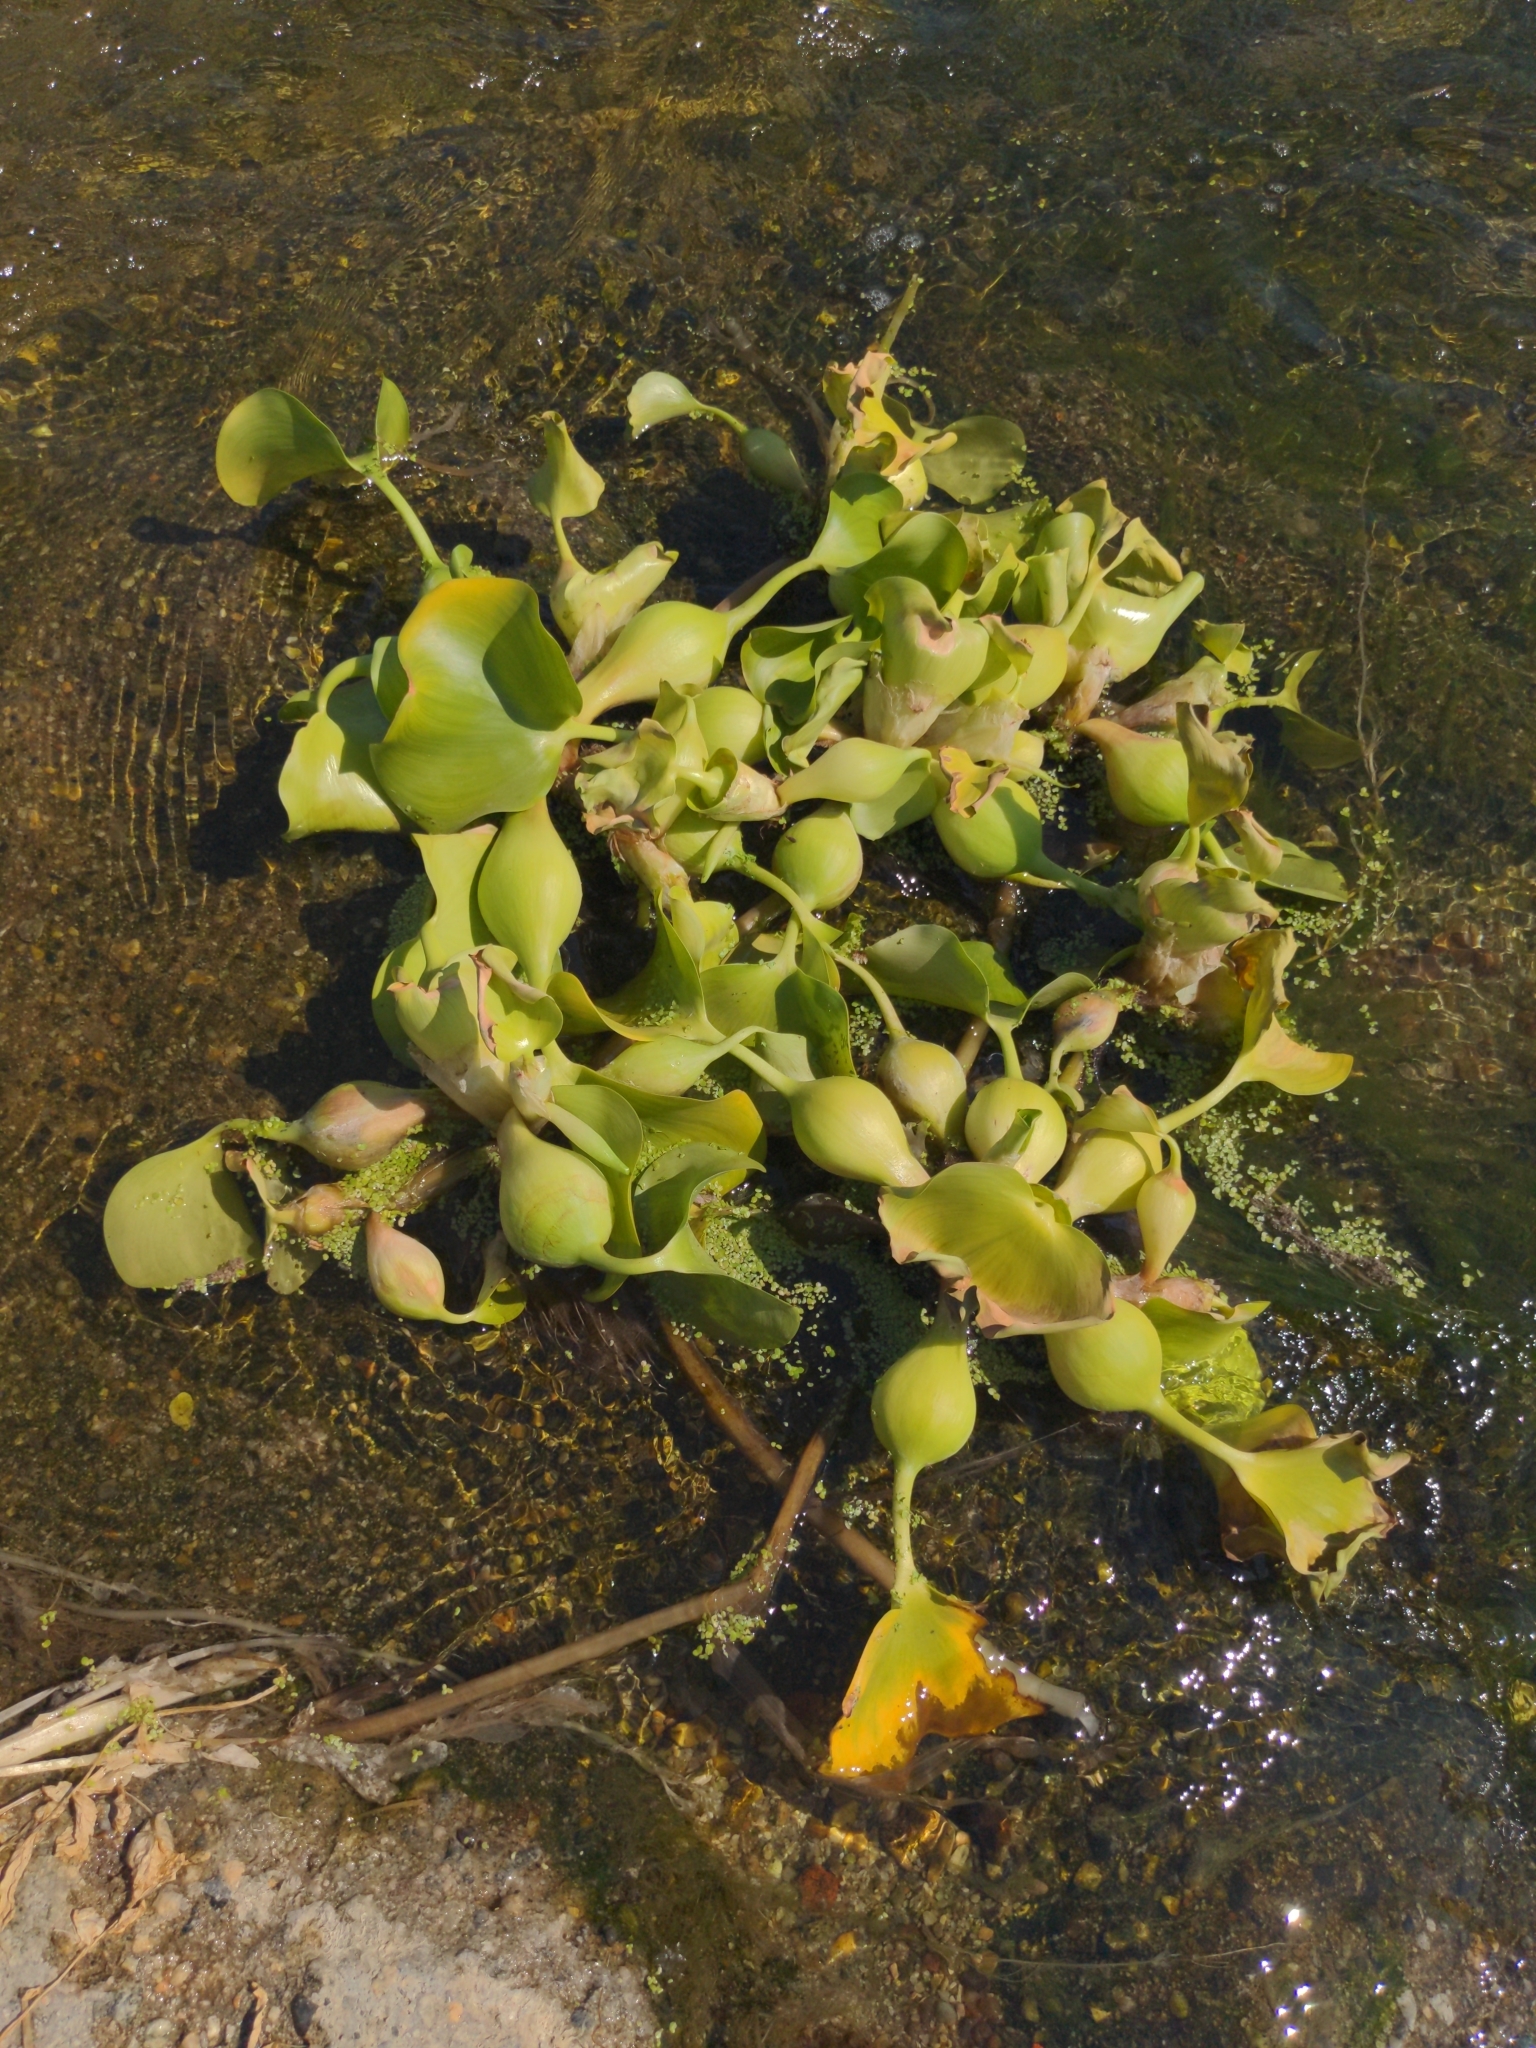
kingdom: Plantae
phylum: Tracheophyta
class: Liliopsida
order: Commelinales
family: Pontederiaceae
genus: Pontederia
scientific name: Pontederia crassipes
